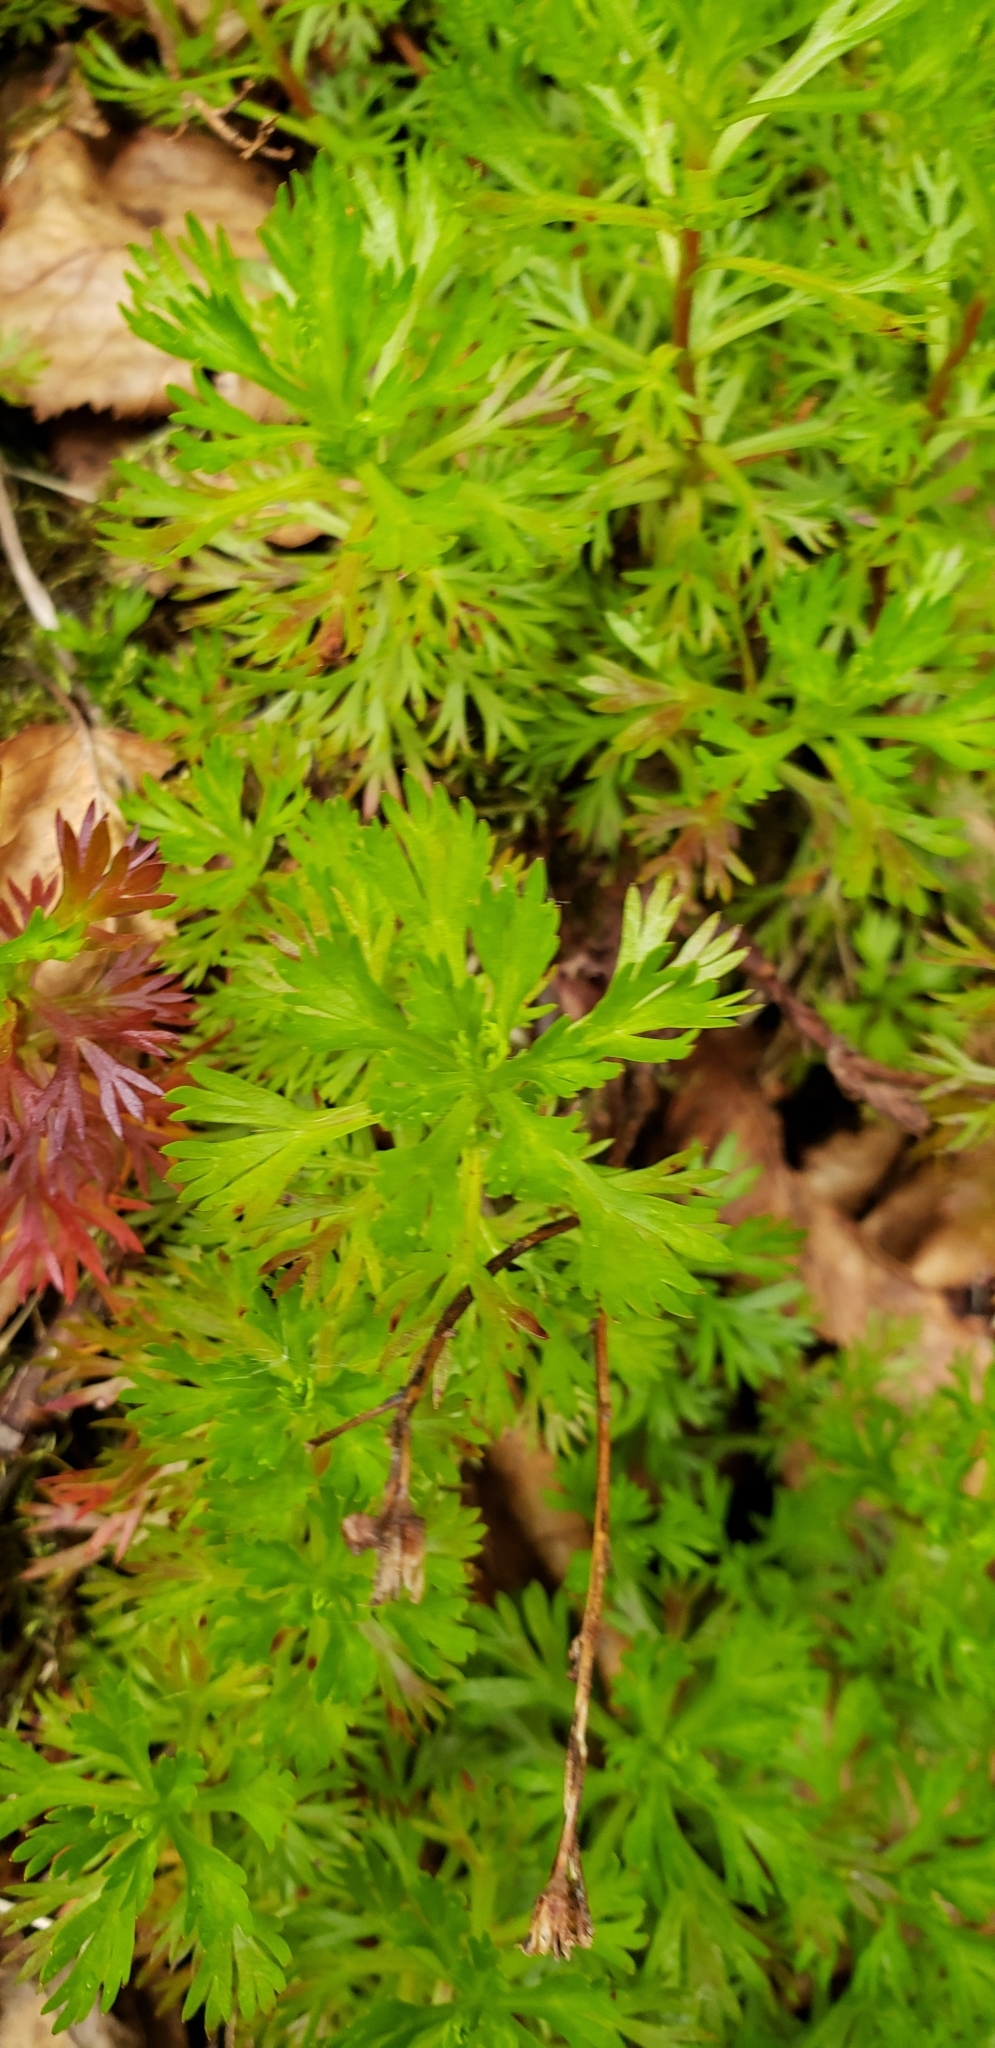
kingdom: Plantae
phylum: Tracheophyta
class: Magnoliopsida
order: Rosales
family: Rosaceae
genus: Luetkea
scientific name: Luetkea pectinata
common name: Partridgefoot
